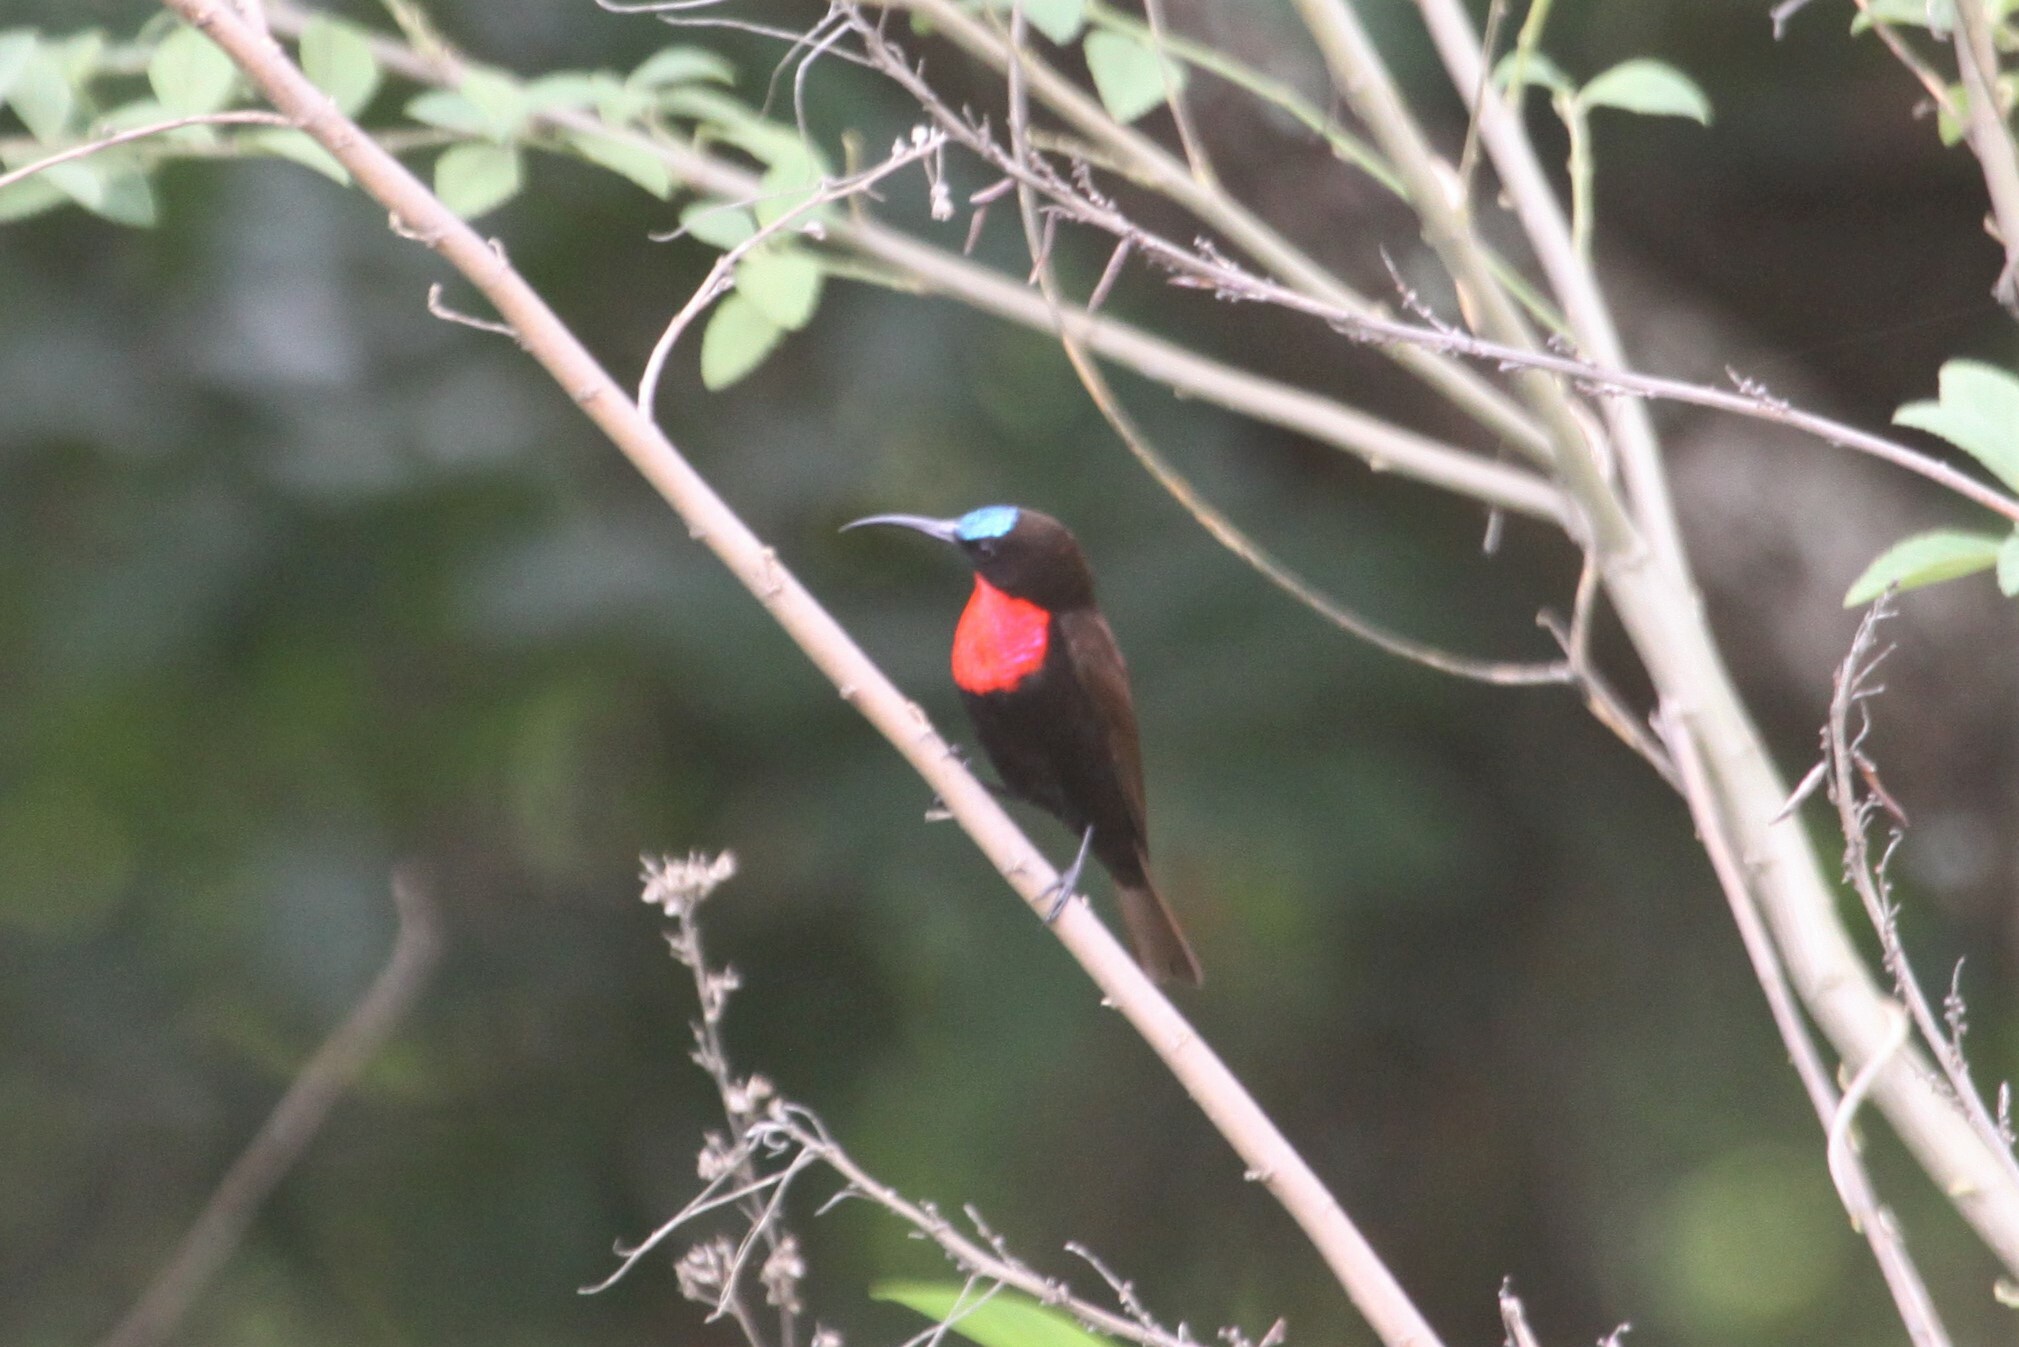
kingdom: Animalia
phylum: Chordata
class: Aves
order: Passeriformes
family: Nectariniidae
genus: Chalcomitra
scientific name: Chalcomitra senegalensis
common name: Scarlet-chested sunbird
